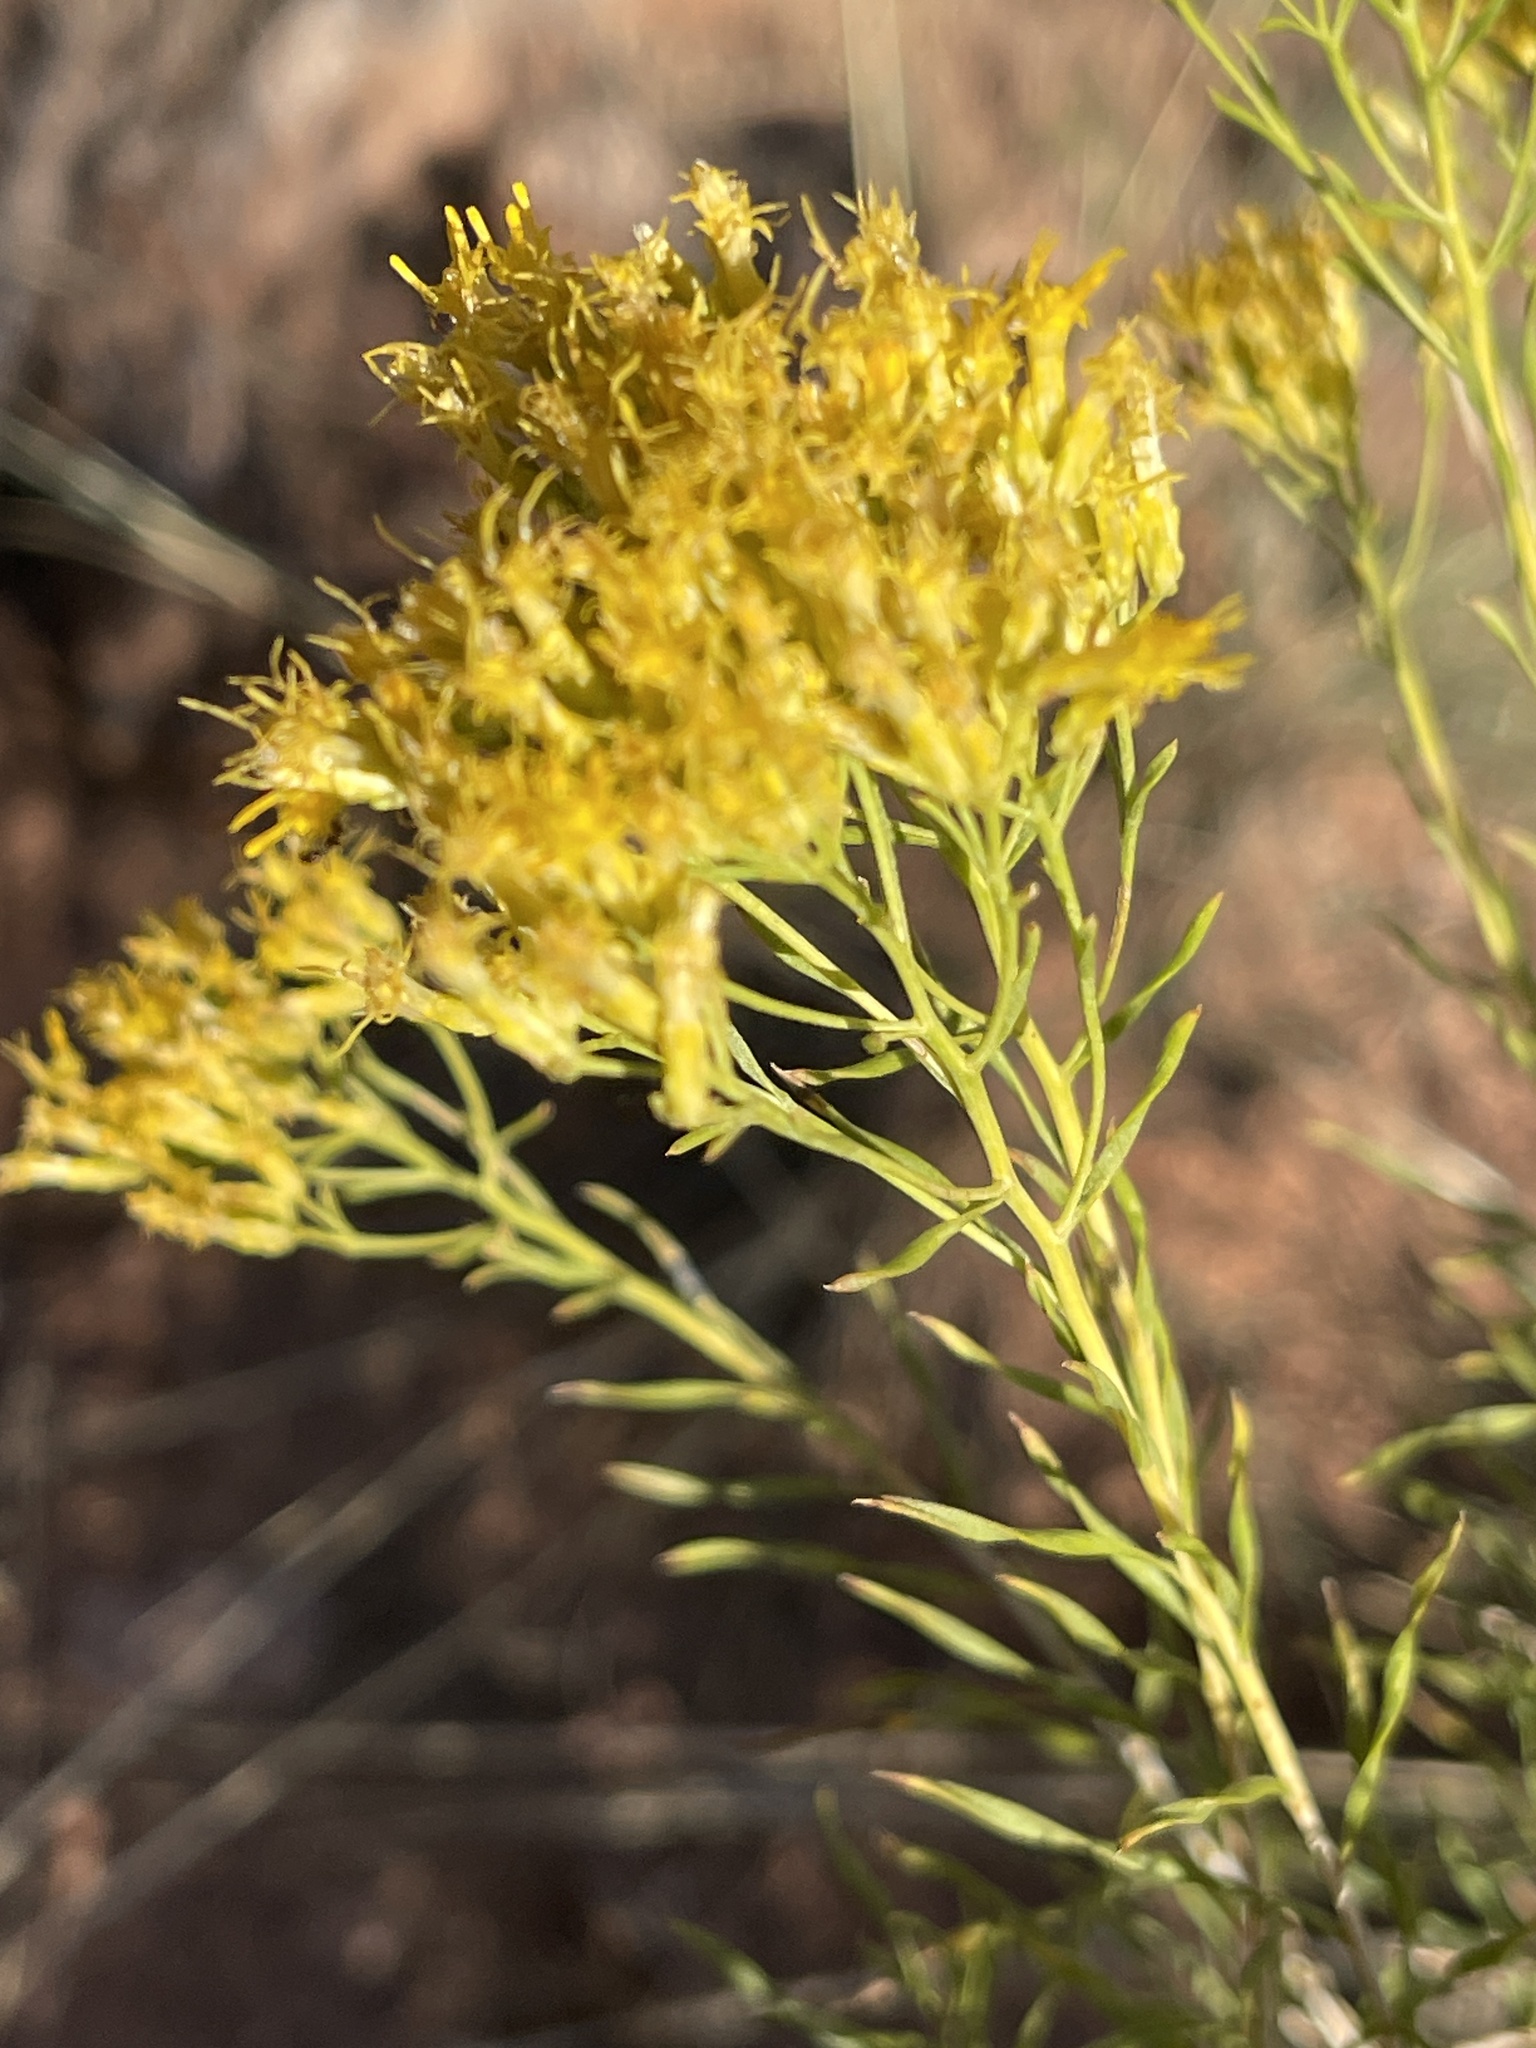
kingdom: Plantae
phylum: Tracheophyta
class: Magnoliopsida
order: Asterales
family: Asteraceae
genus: Chrysothamnus
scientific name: Chrysothamnus viscidiflorus
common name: Yellow rabbitbrush
